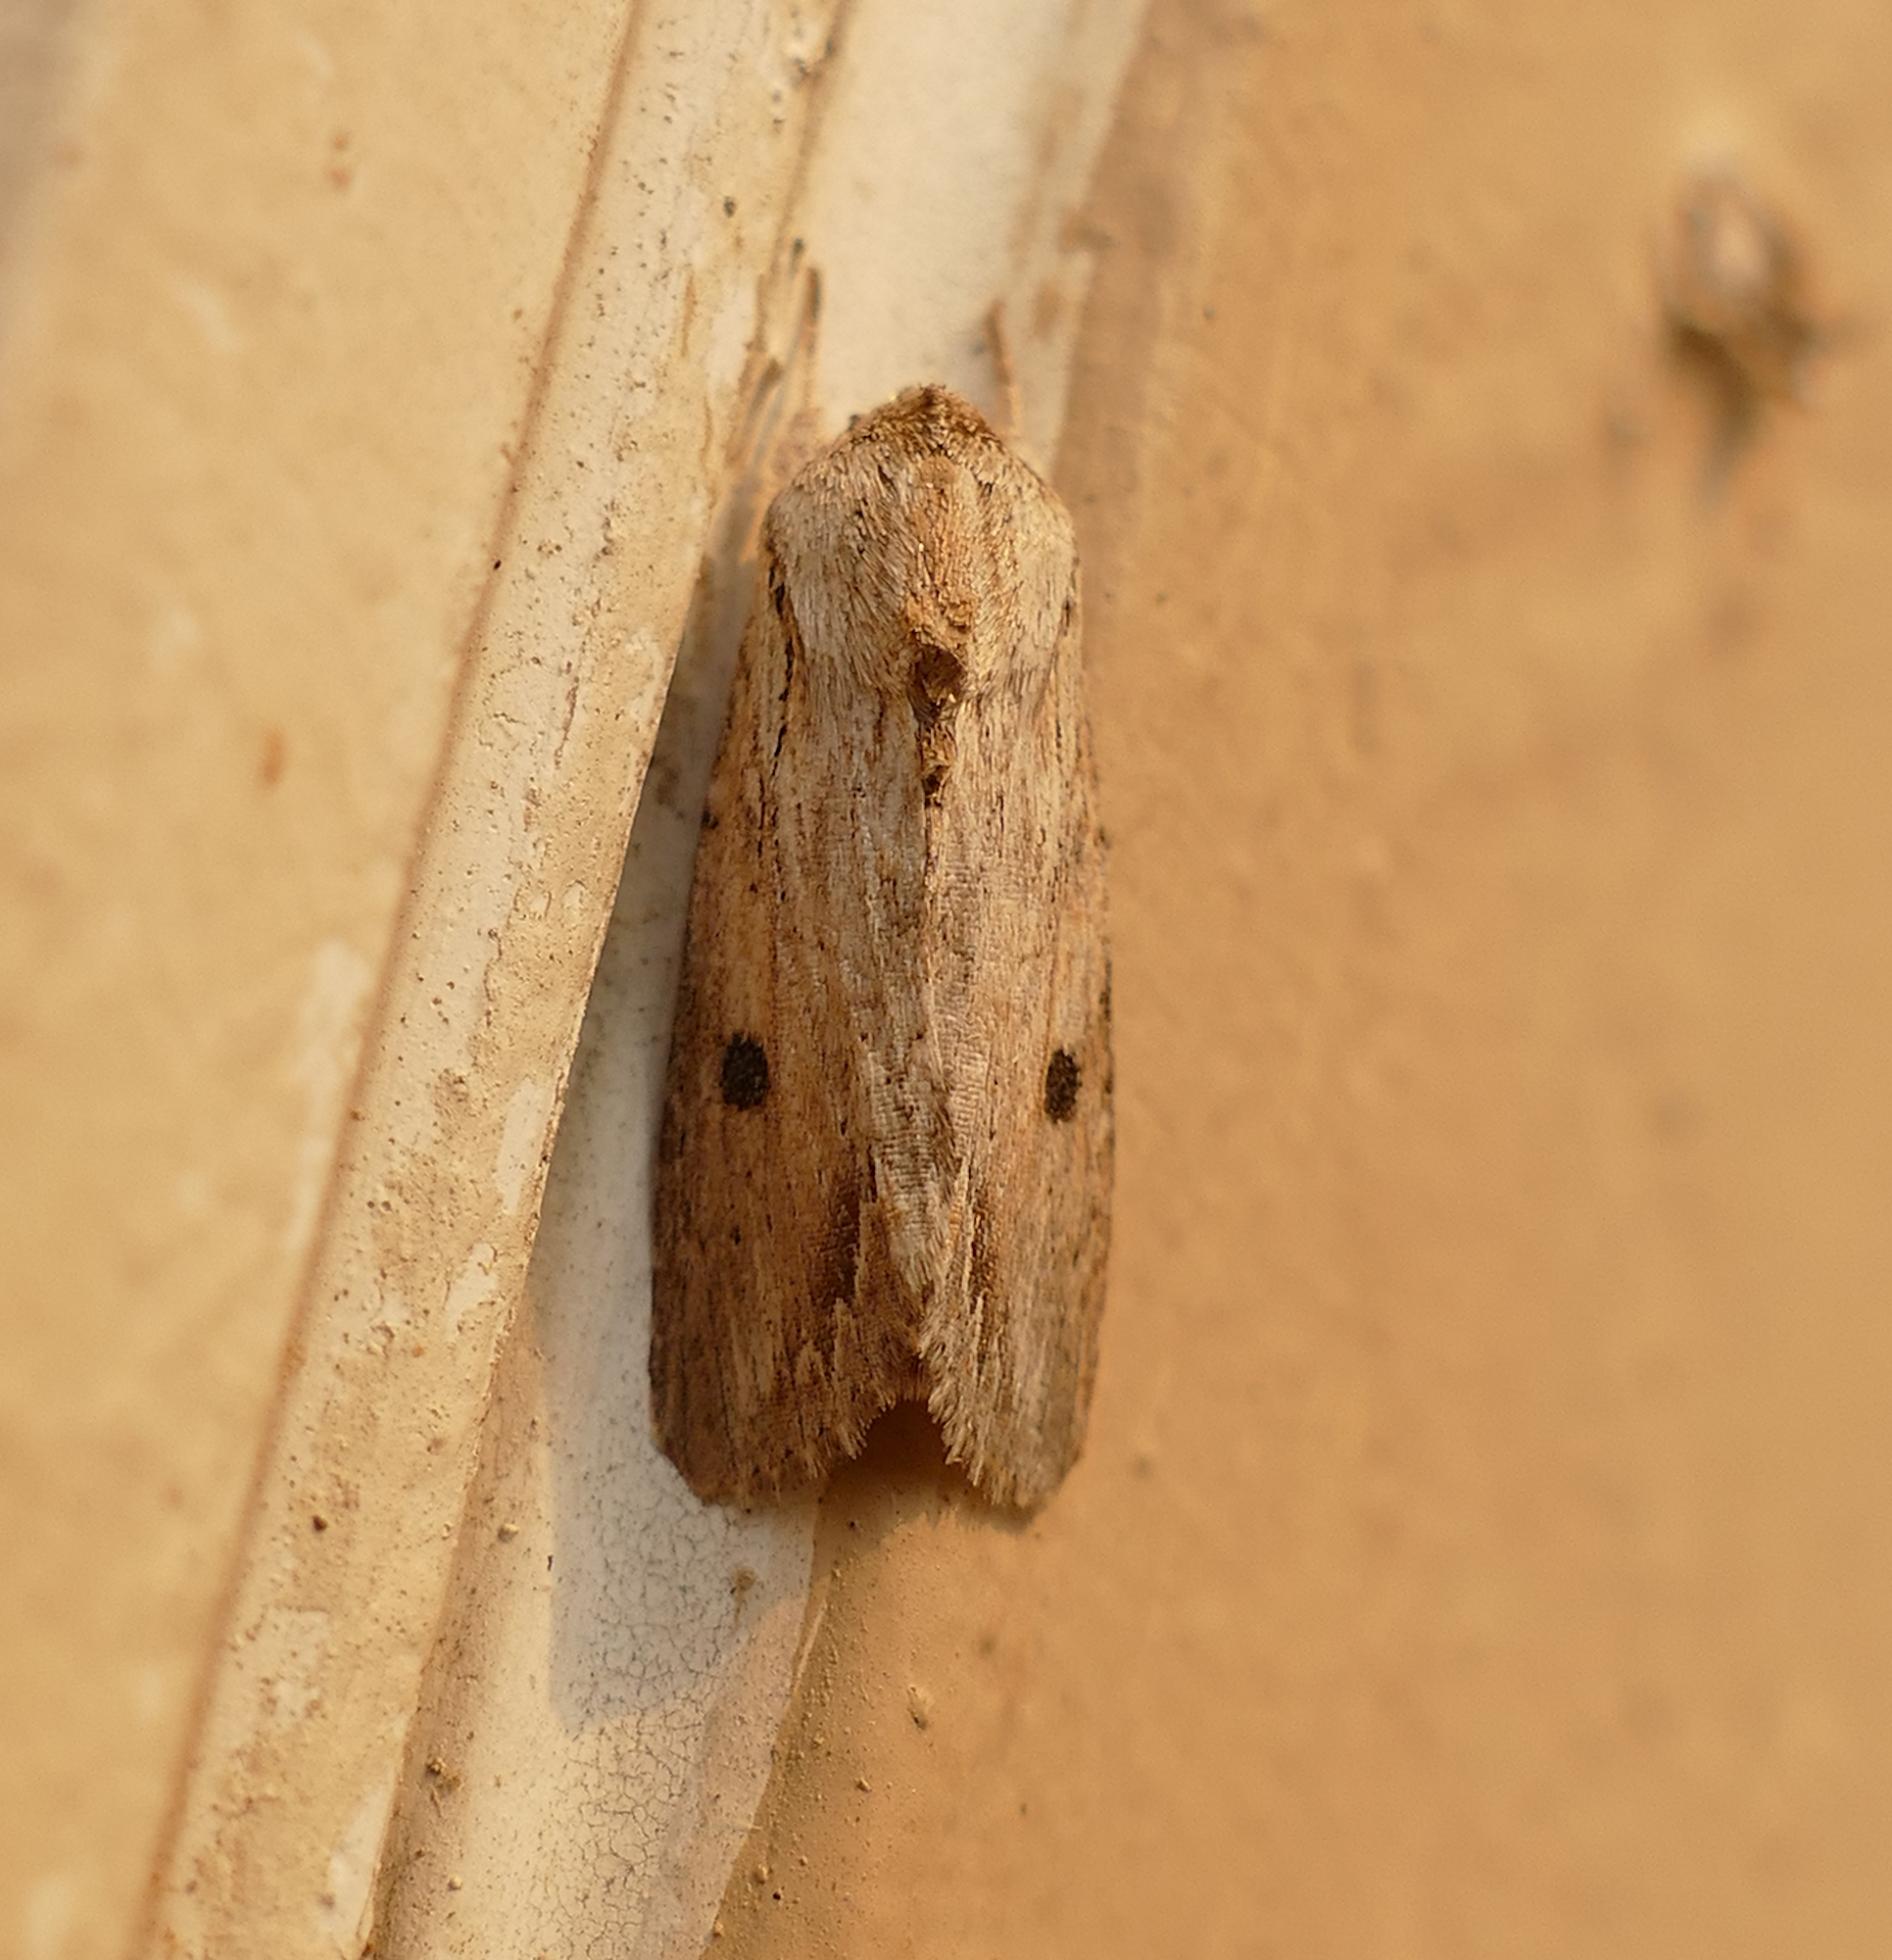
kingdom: Animalia
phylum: Arthropoda
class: Insecta
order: Lepidoptera
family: Noctuidae
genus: Spodoptera
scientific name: Spodoptera eridania
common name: Southern army worm
